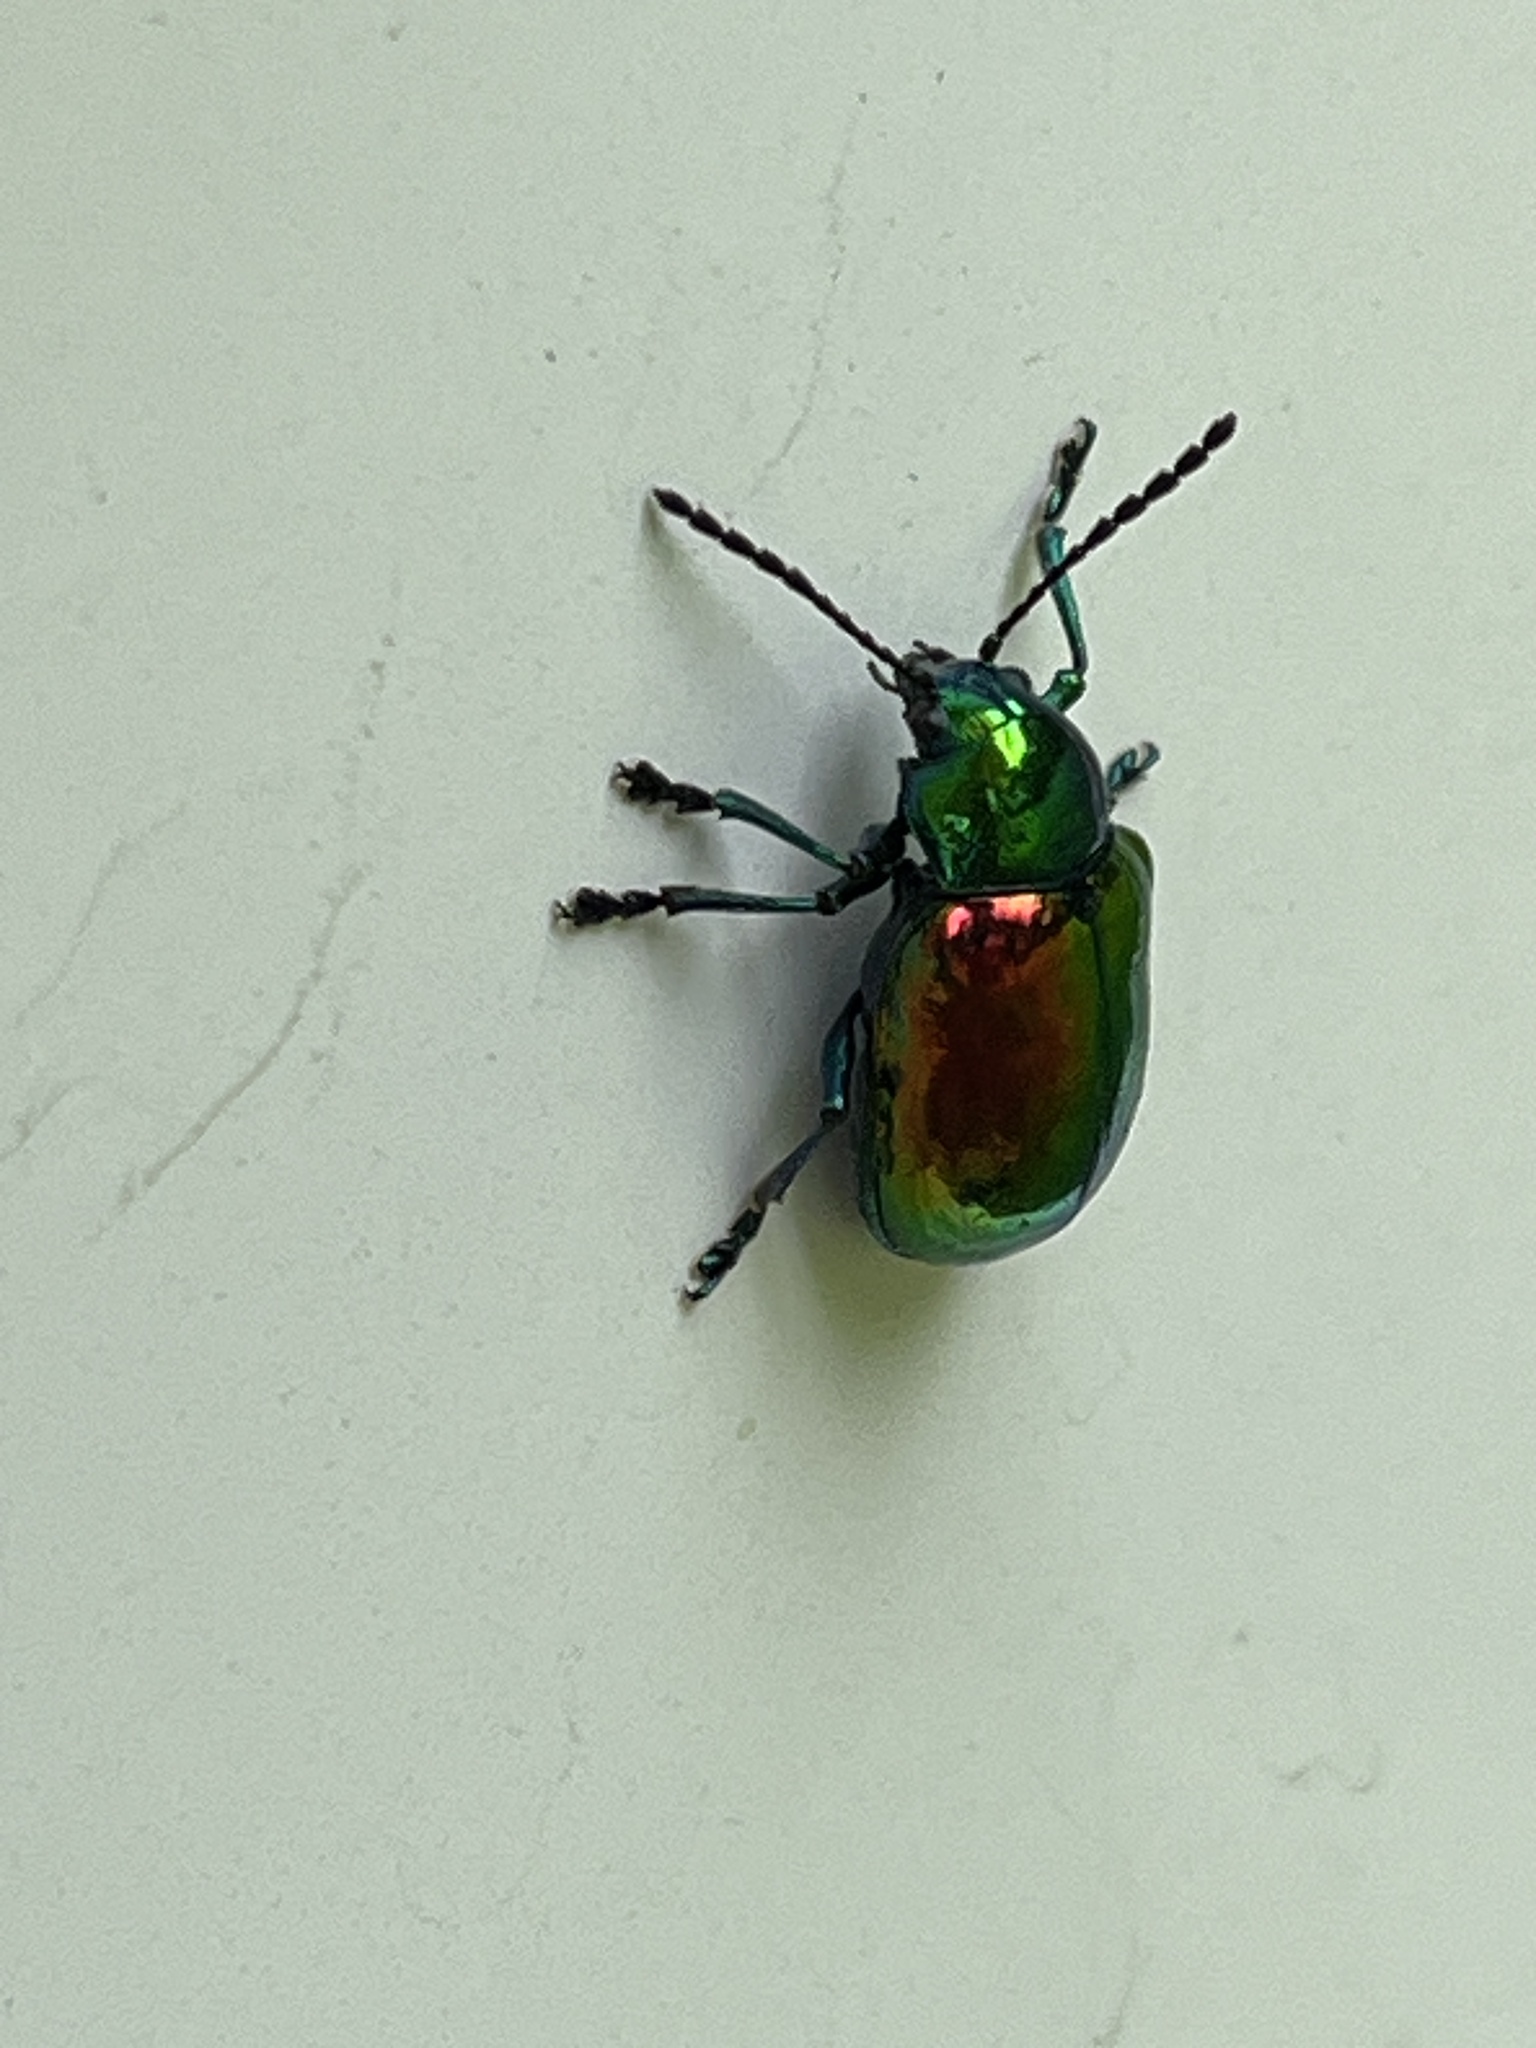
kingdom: Animalia
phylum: Arthropoda
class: Insecta
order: Coleoptera
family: Chrysomelidae
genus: Chrysochus
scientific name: Chrysochus auratus
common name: Dogbane leaf beetle
